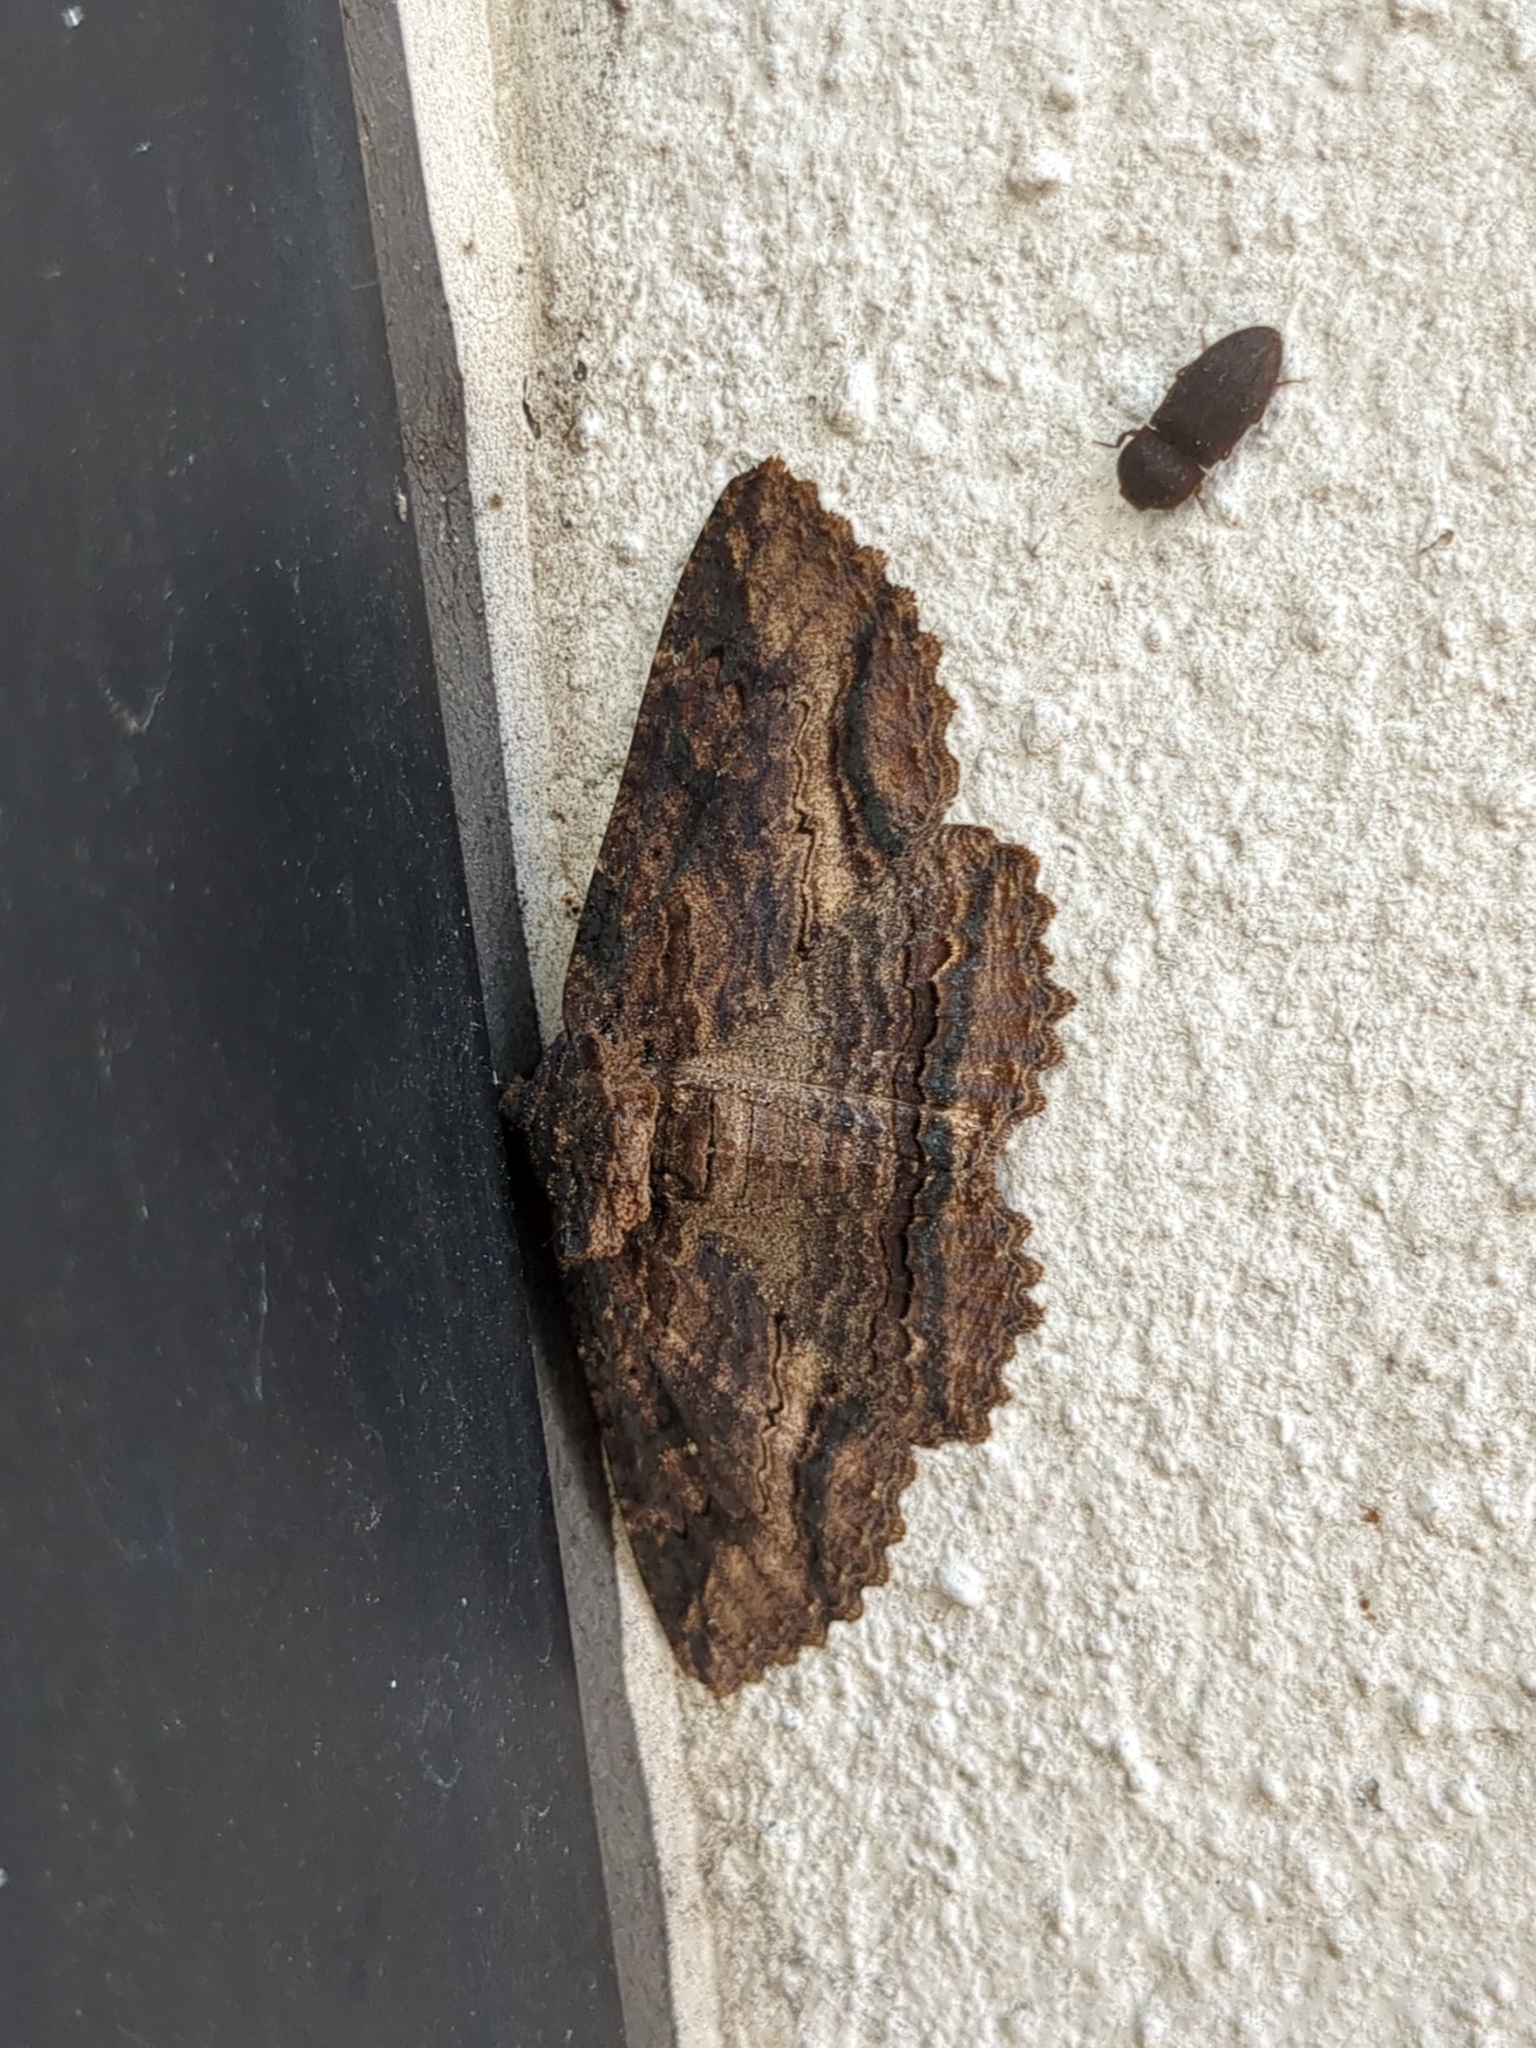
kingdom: Animalia
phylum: Arthropoda
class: Insecta
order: Lepidoptera
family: Erebidae
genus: Zale
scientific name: Zale lunata
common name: Lunate zale moth
